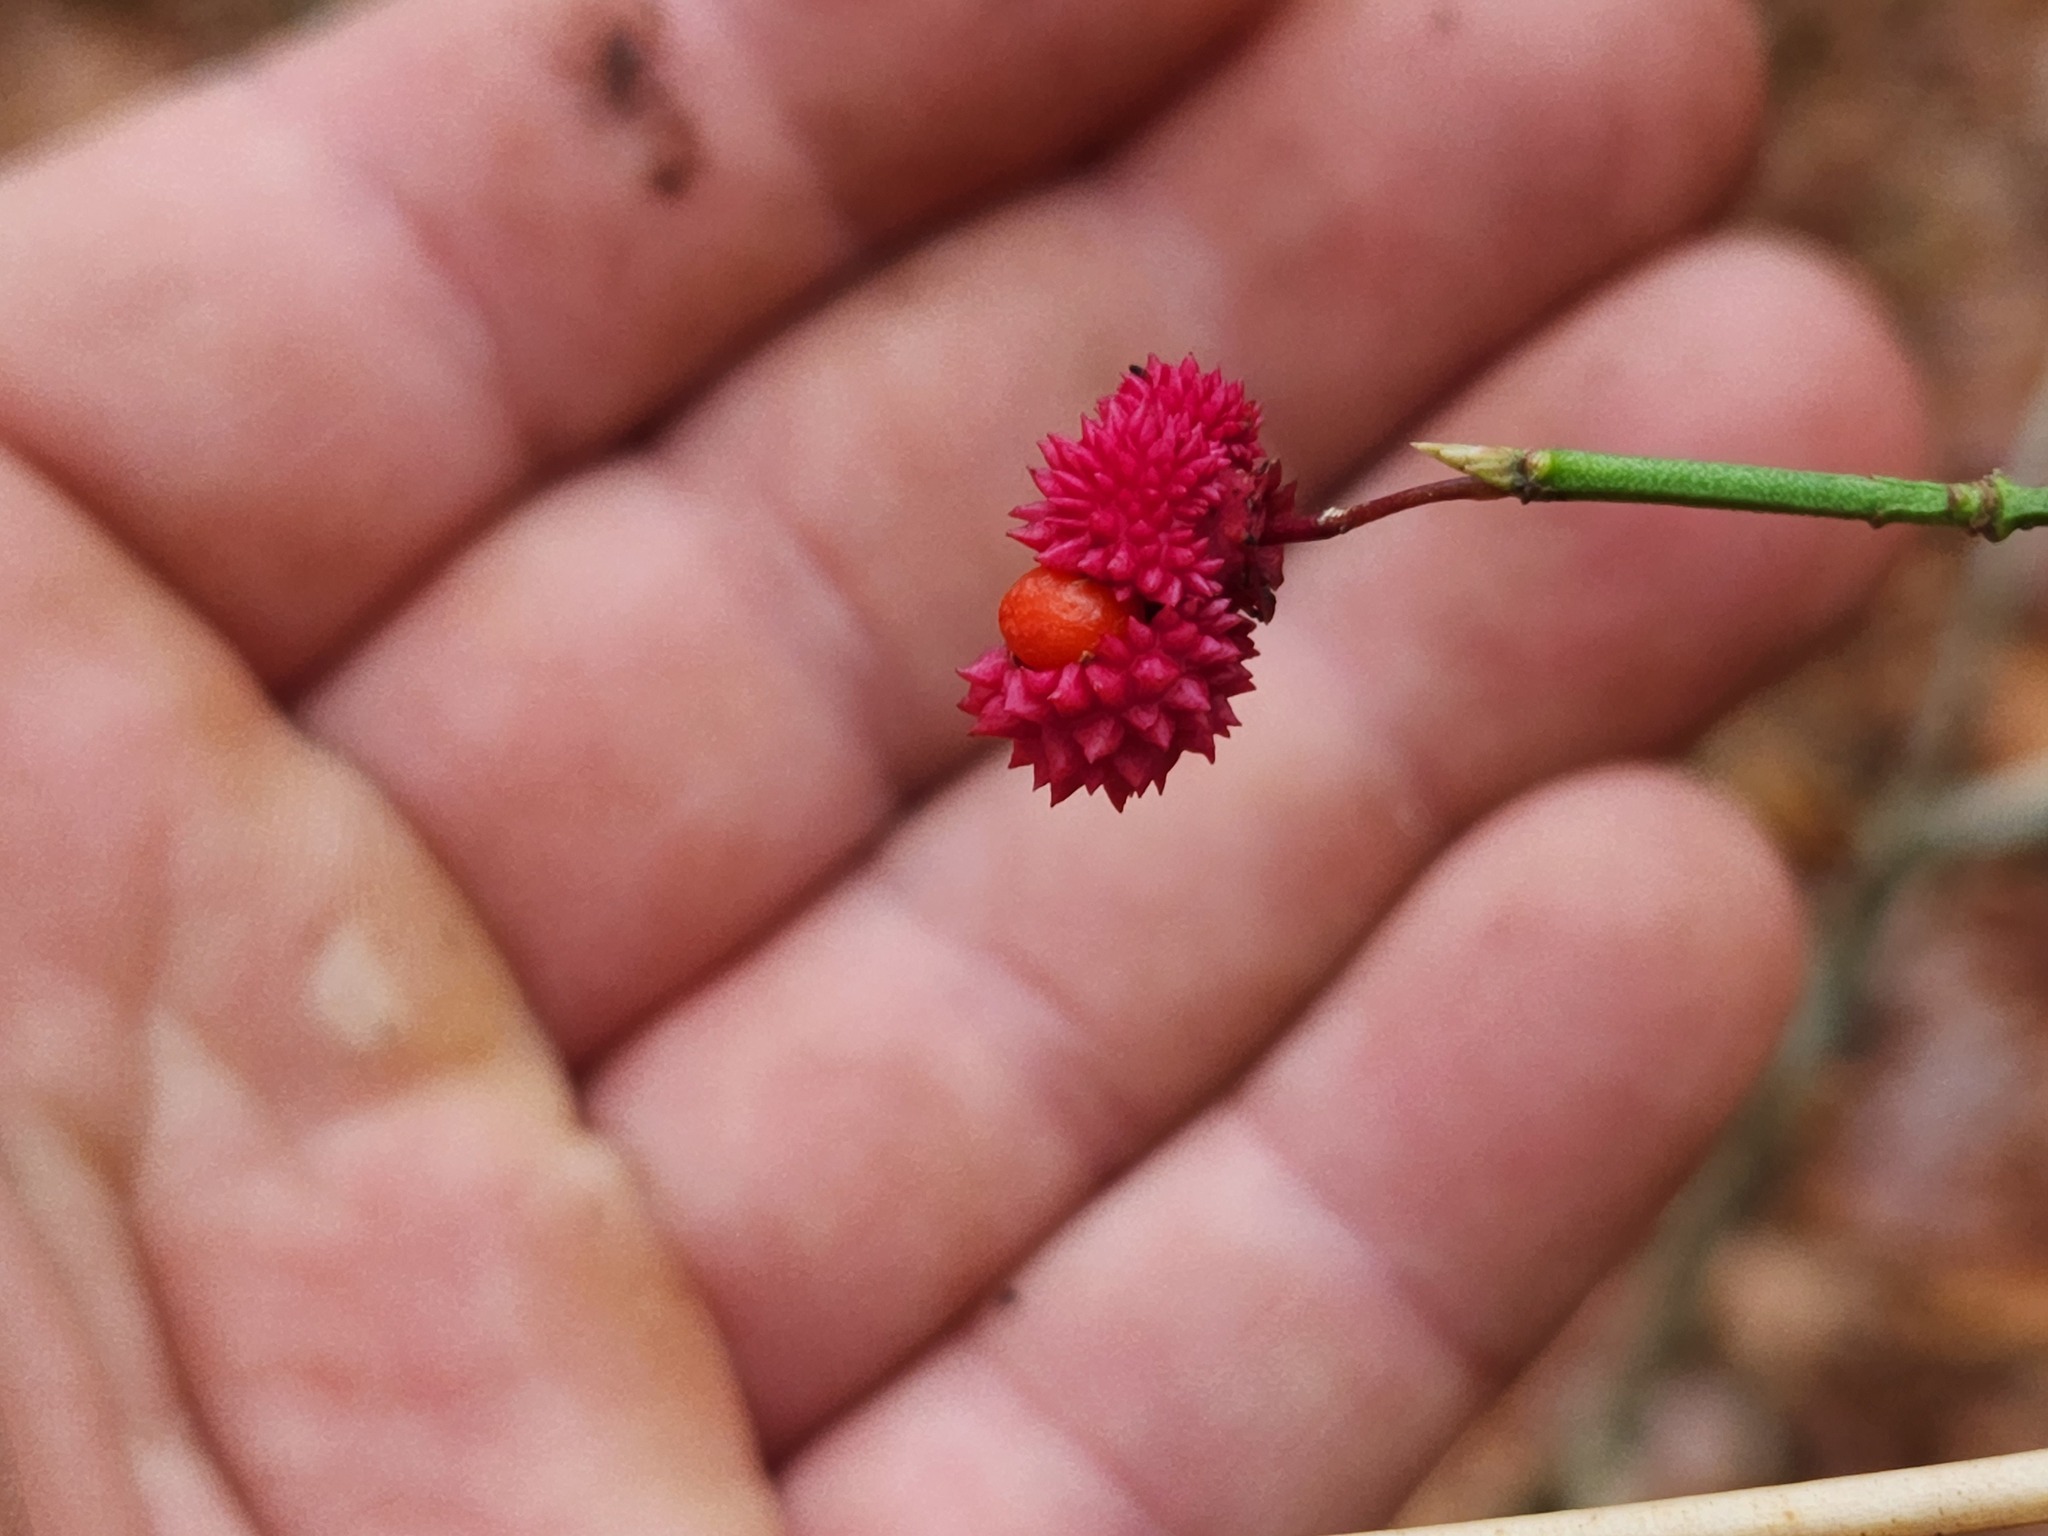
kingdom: Plantae
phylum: Tracheophyta
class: Magnoliopsida
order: Celastrales
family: Celastraceae
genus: Euonymus
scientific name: Euonymus americanus
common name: Bursting-heart
